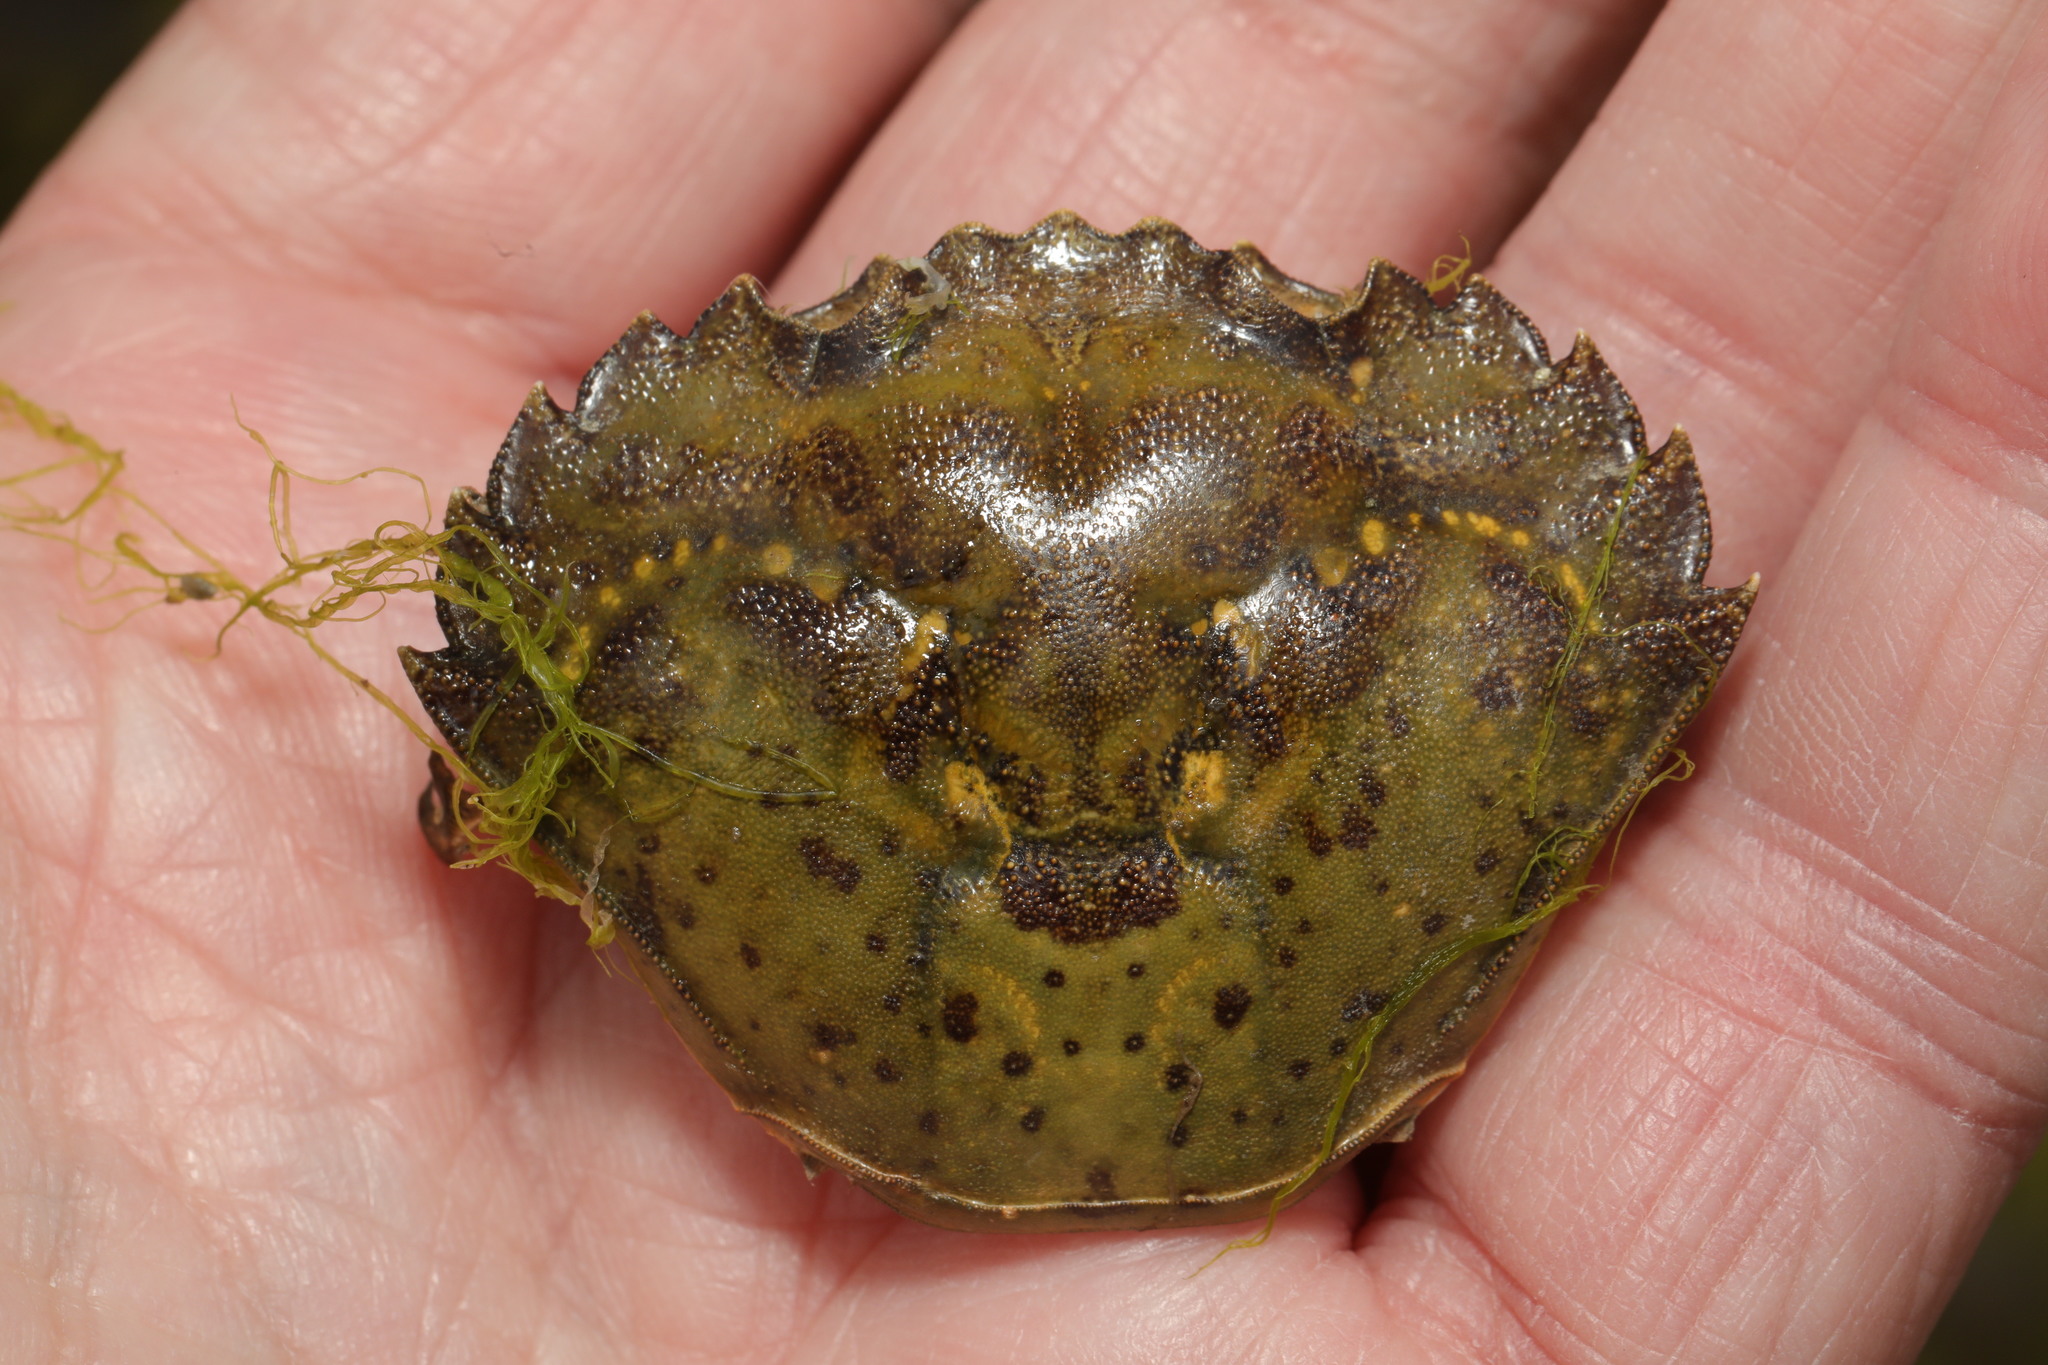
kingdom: Animalia
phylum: Arthropoda
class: Malacostraca
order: Decapoda
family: Carcinidae
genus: Carcinus
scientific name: Carcinus maenas
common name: European green crab
